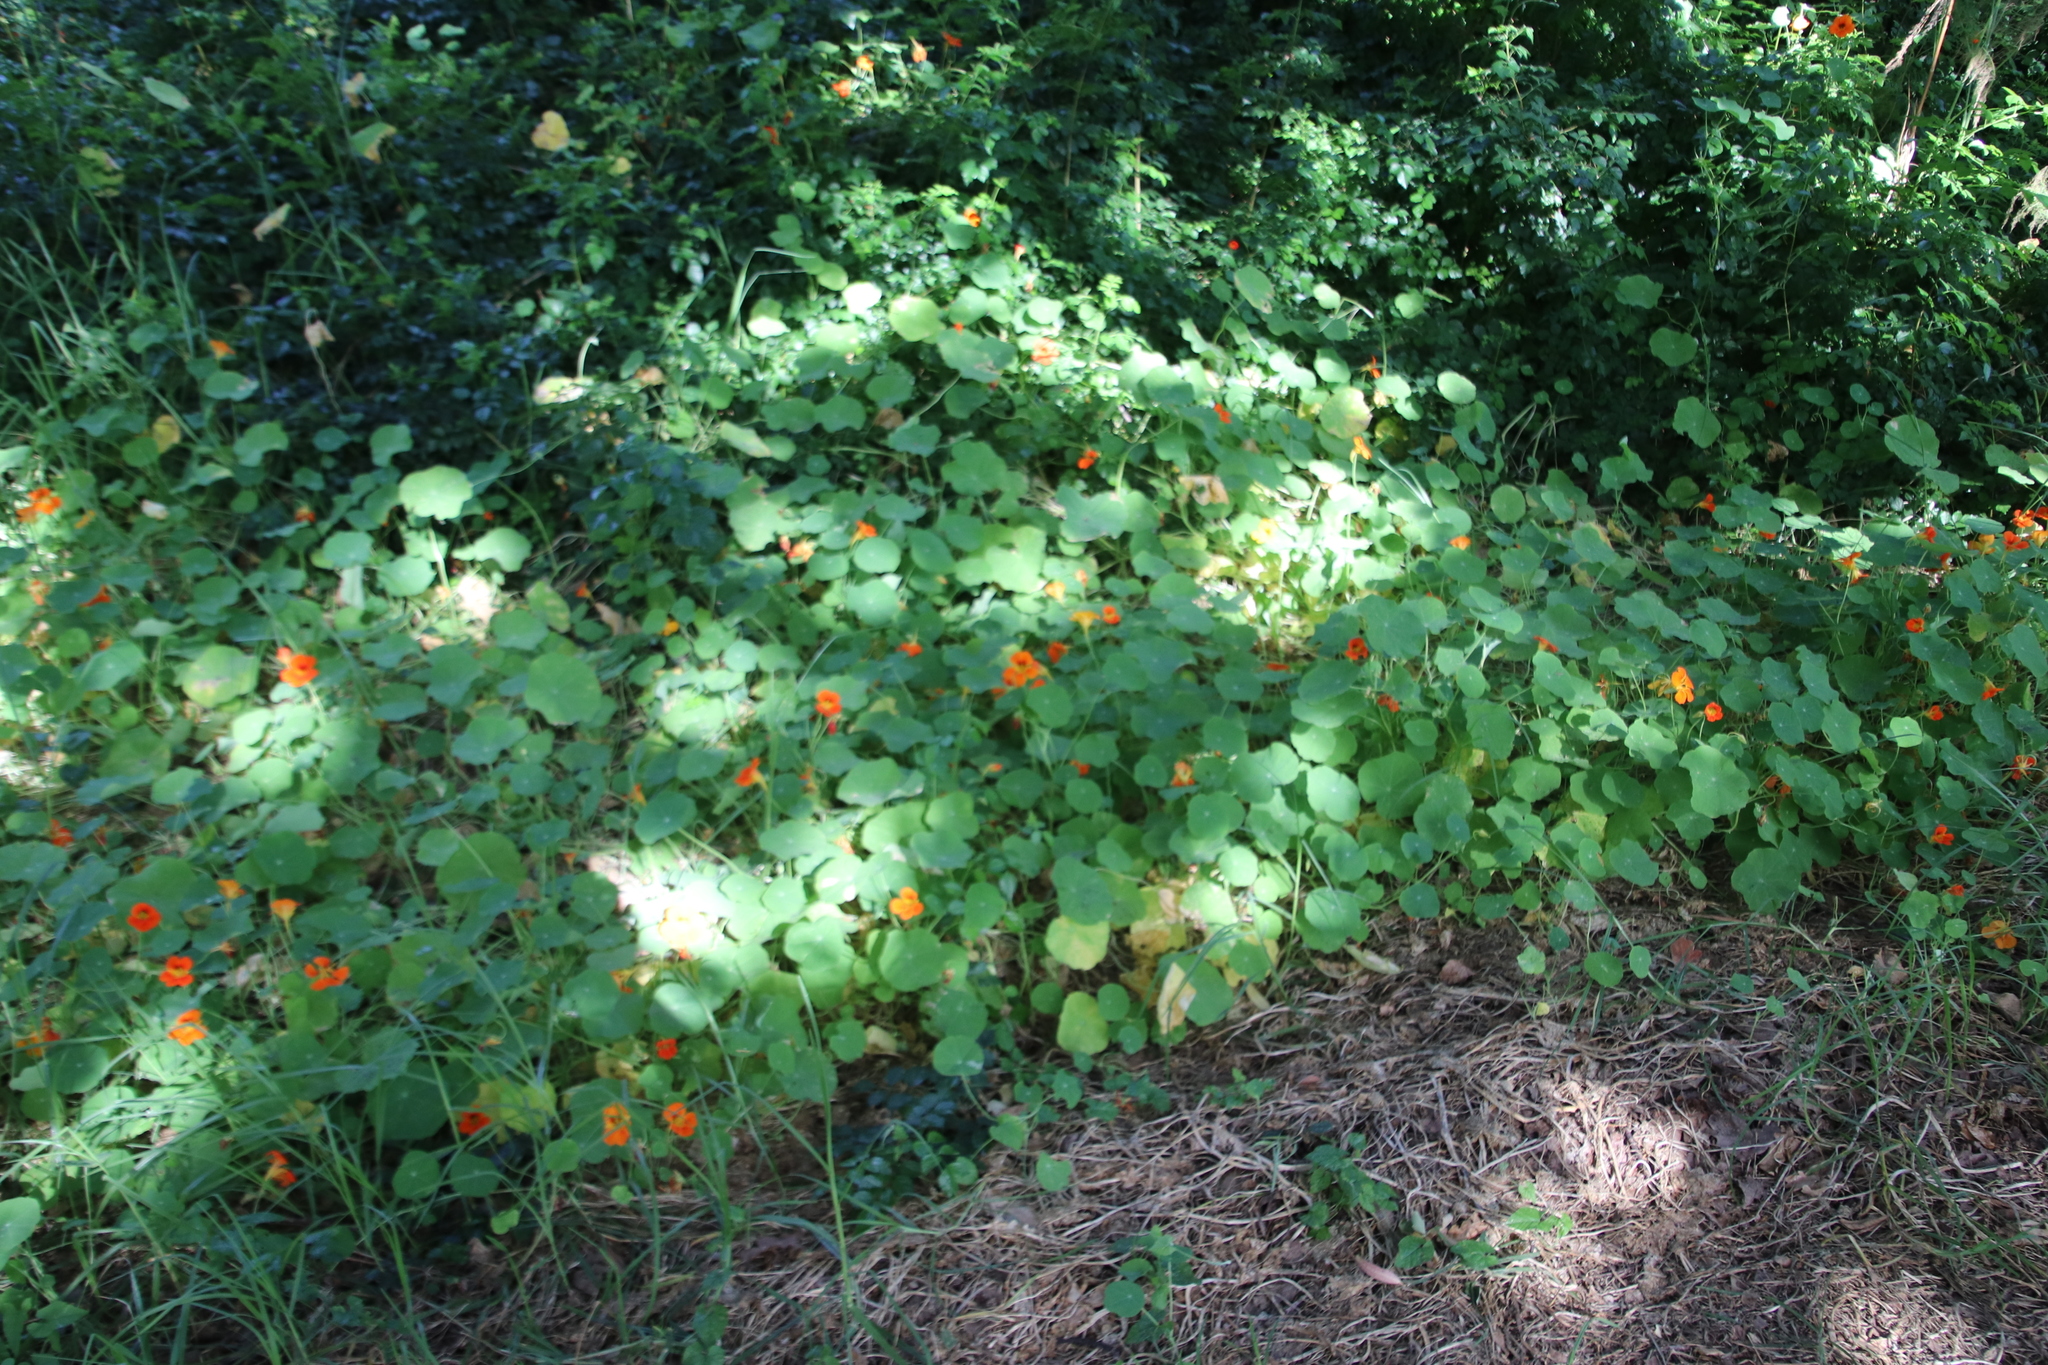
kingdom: Plantae
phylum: Tracheophyta
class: Magnoliopsida
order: Brassicales
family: Tropaeolaceae
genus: Tropaeolum
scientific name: Tropaeolum majus
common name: Nasturtium
